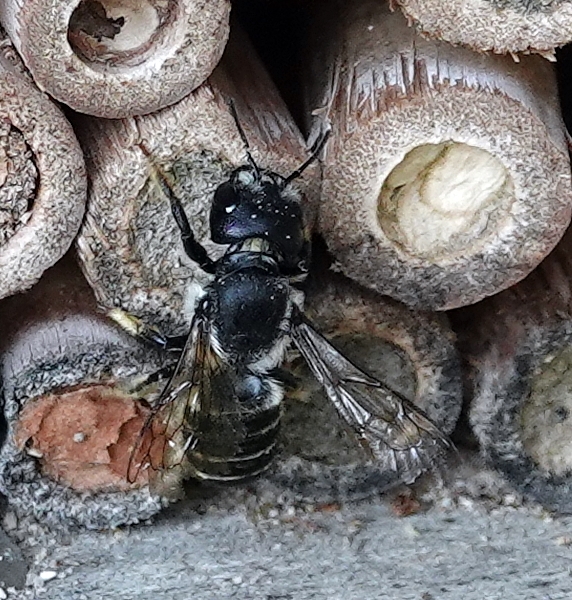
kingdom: Animalia
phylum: Arthropoda
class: Insecta
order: Hymenoptera
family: Megachilidae
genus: Megachile
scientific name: Megachile pugnata
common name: Pugnacious leafcutter bee
